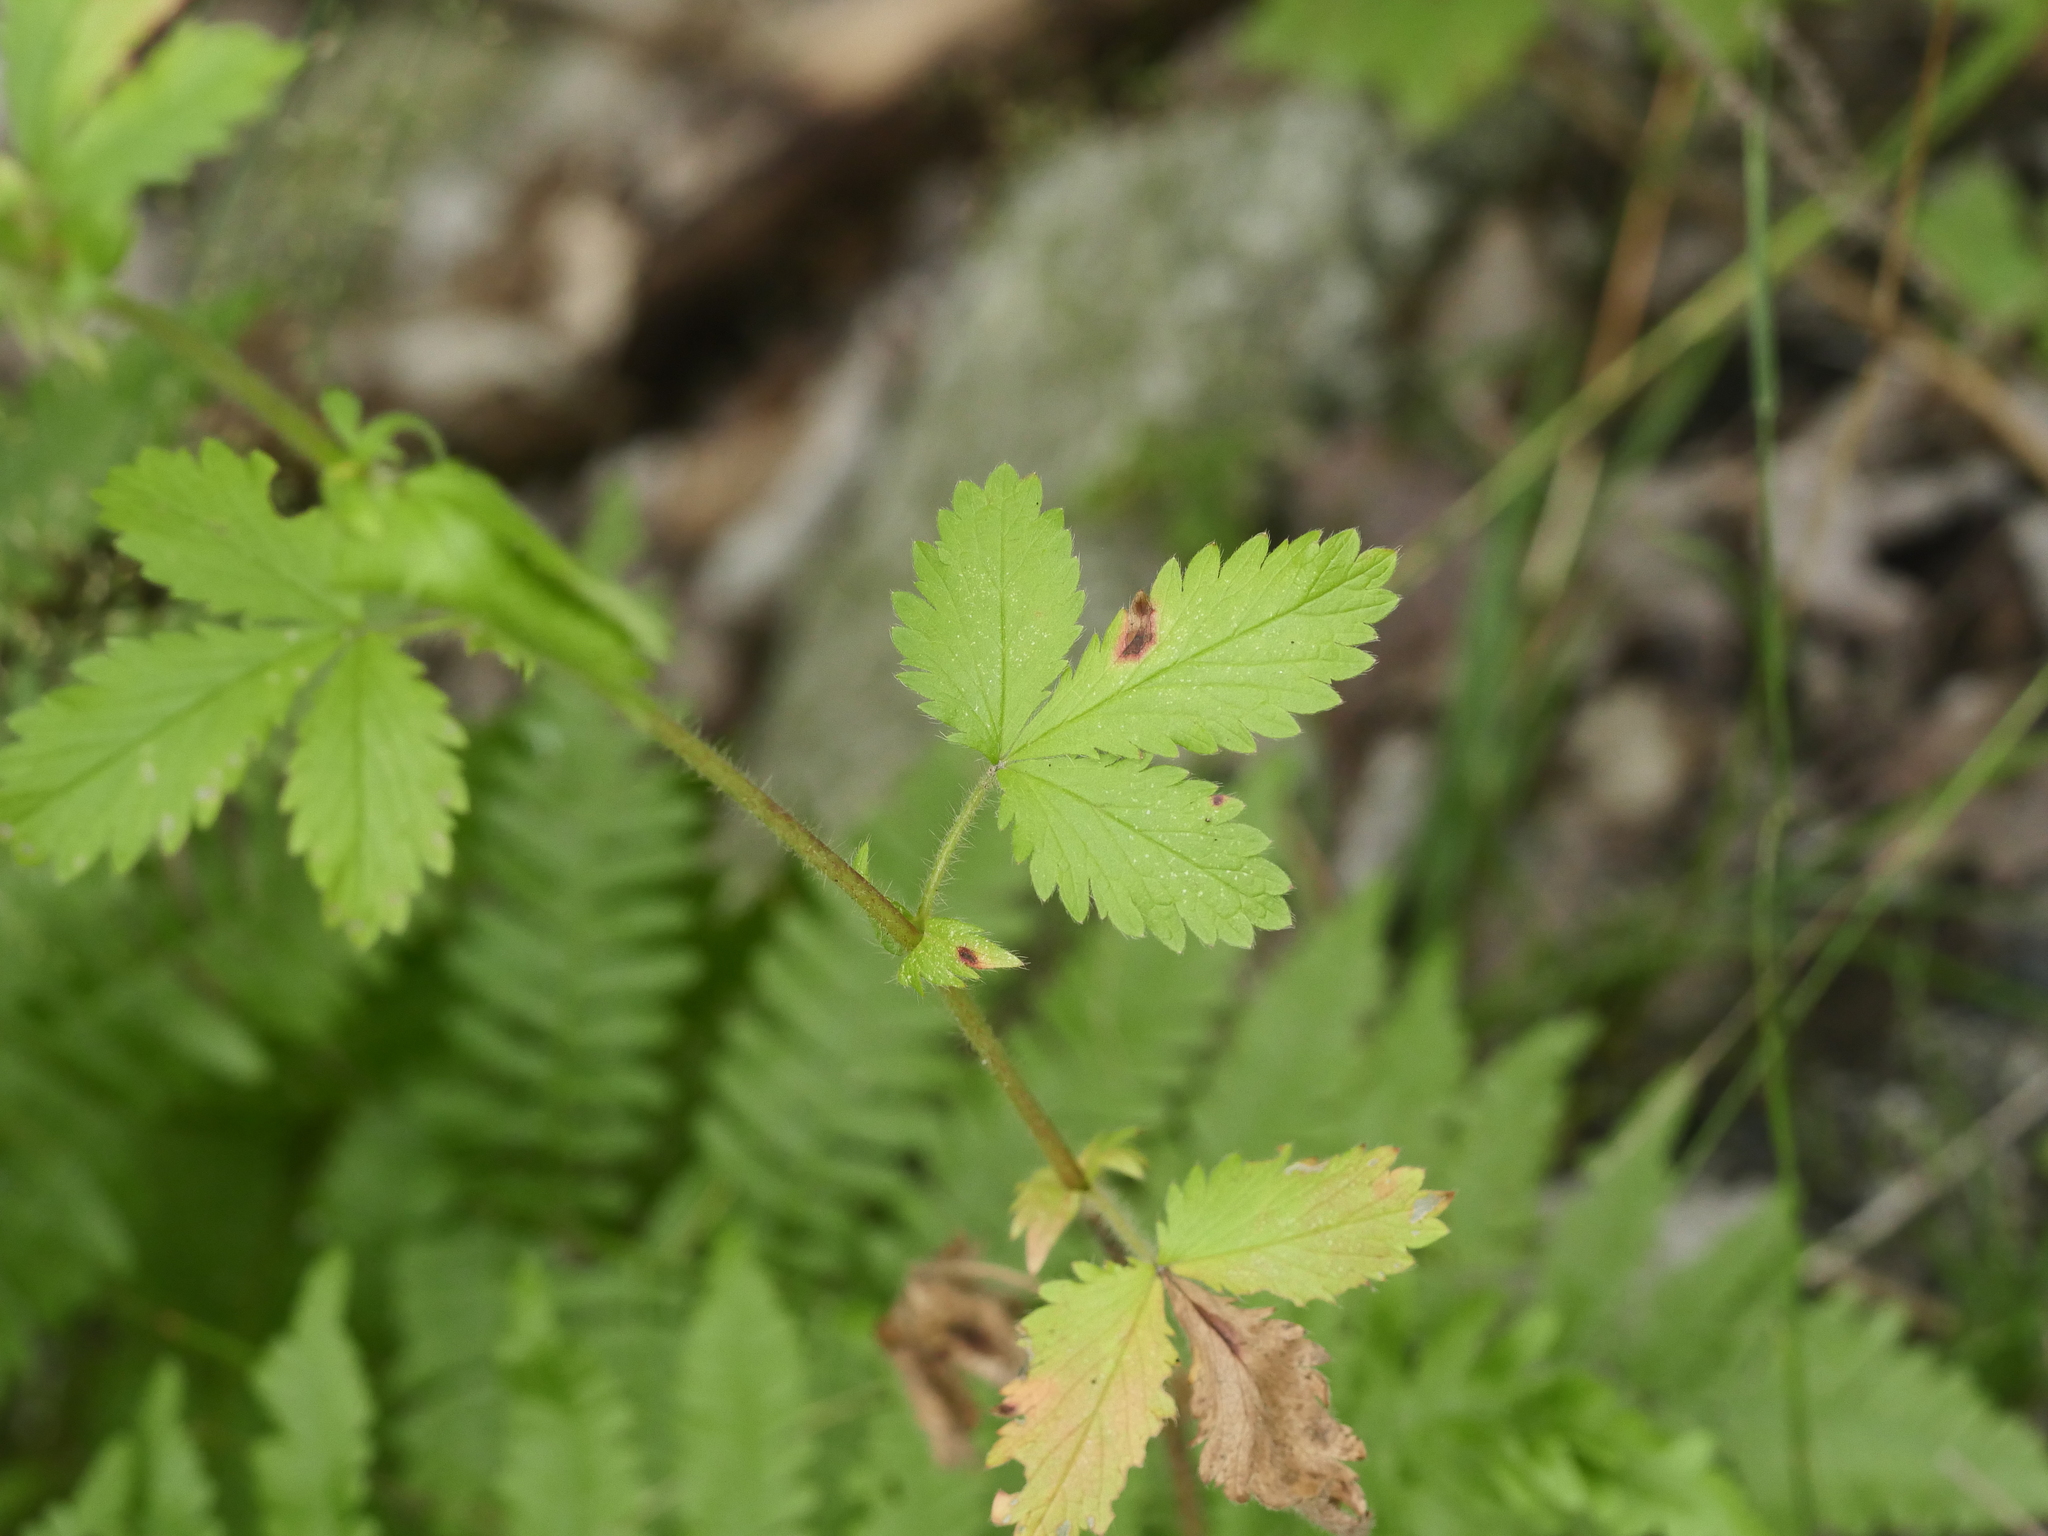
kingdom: Plantae
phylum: Tracheophyta
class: Magnoliopsida
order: Rosales
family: Rosaceae
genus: Potentilla
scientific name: Potentilla norvegica
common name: Ternate-leaved cinquefoil
